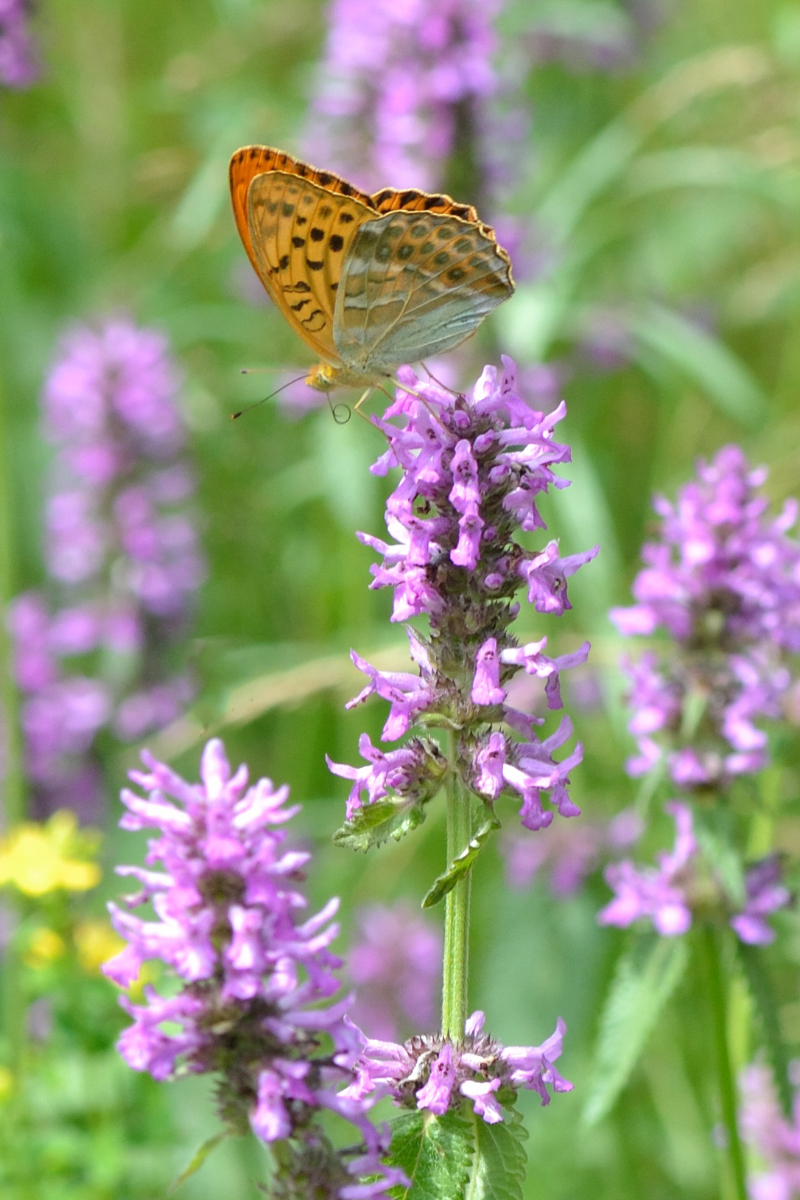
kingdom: Animalia
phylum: Arthropoda
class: Insecta
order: Lepidoptera
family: Nymphalidae
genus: Argynnis
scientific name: Argynnis paphia
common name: Silver-washed fritillary
